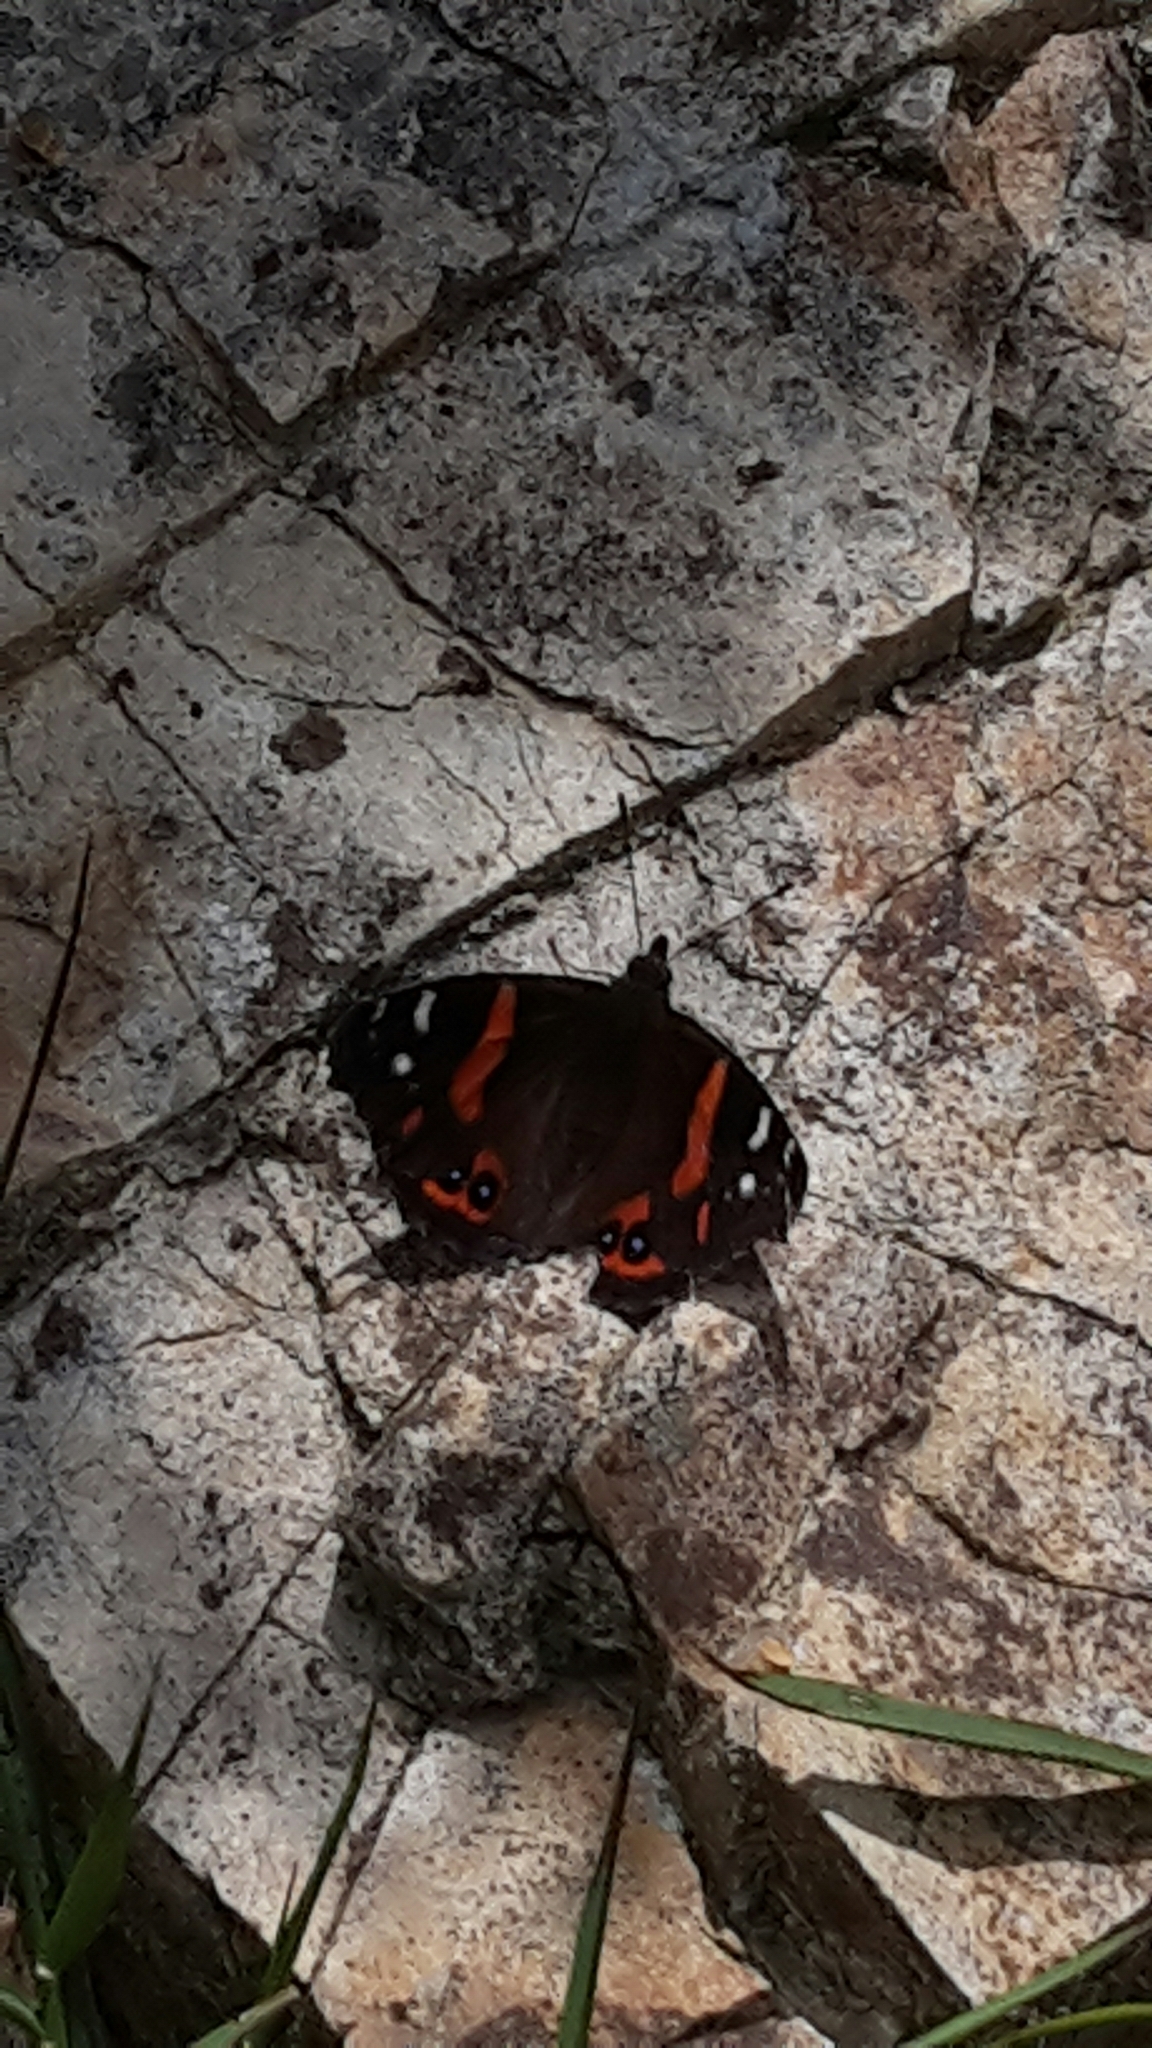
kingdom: Animalia
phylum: Arthropoda
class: Insecta
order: Lepidoptera
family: Nymphalidae
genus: Vanessa
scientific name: Vanessa gonerilla
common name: New zealand red admiral
